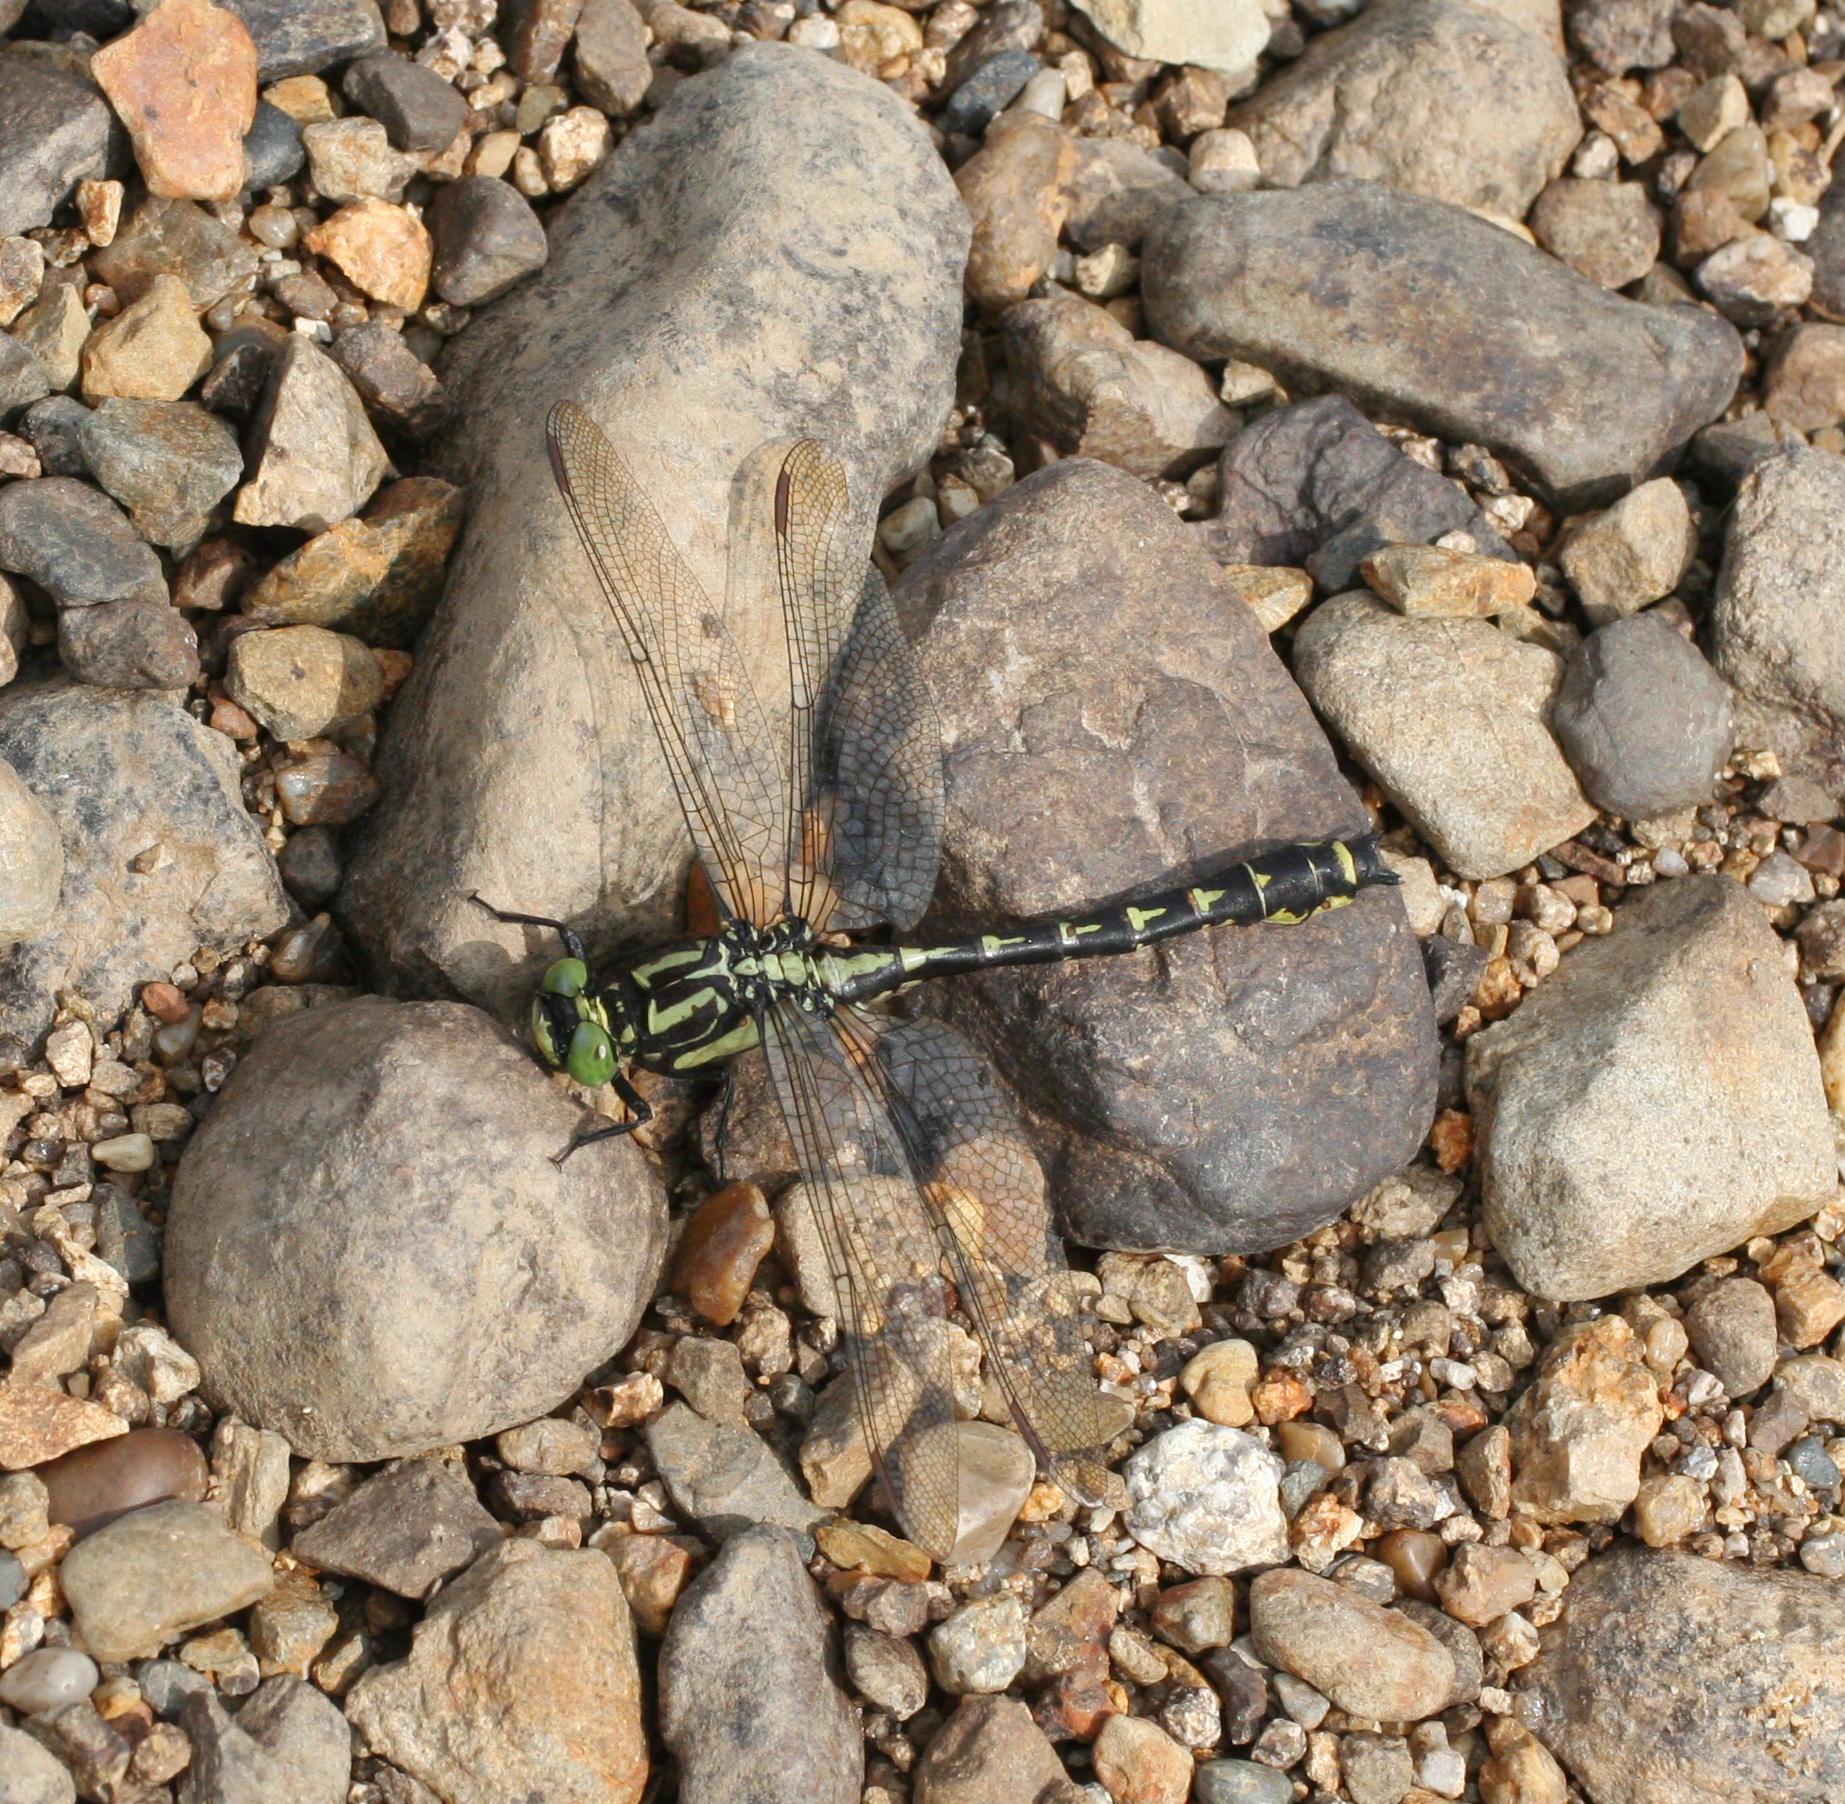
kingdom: Animalia
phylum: Arthropoda
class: Insecta
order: Odonata
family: Gomphidae
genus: Shaogomphus
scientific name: Shaogomphus schmidti
